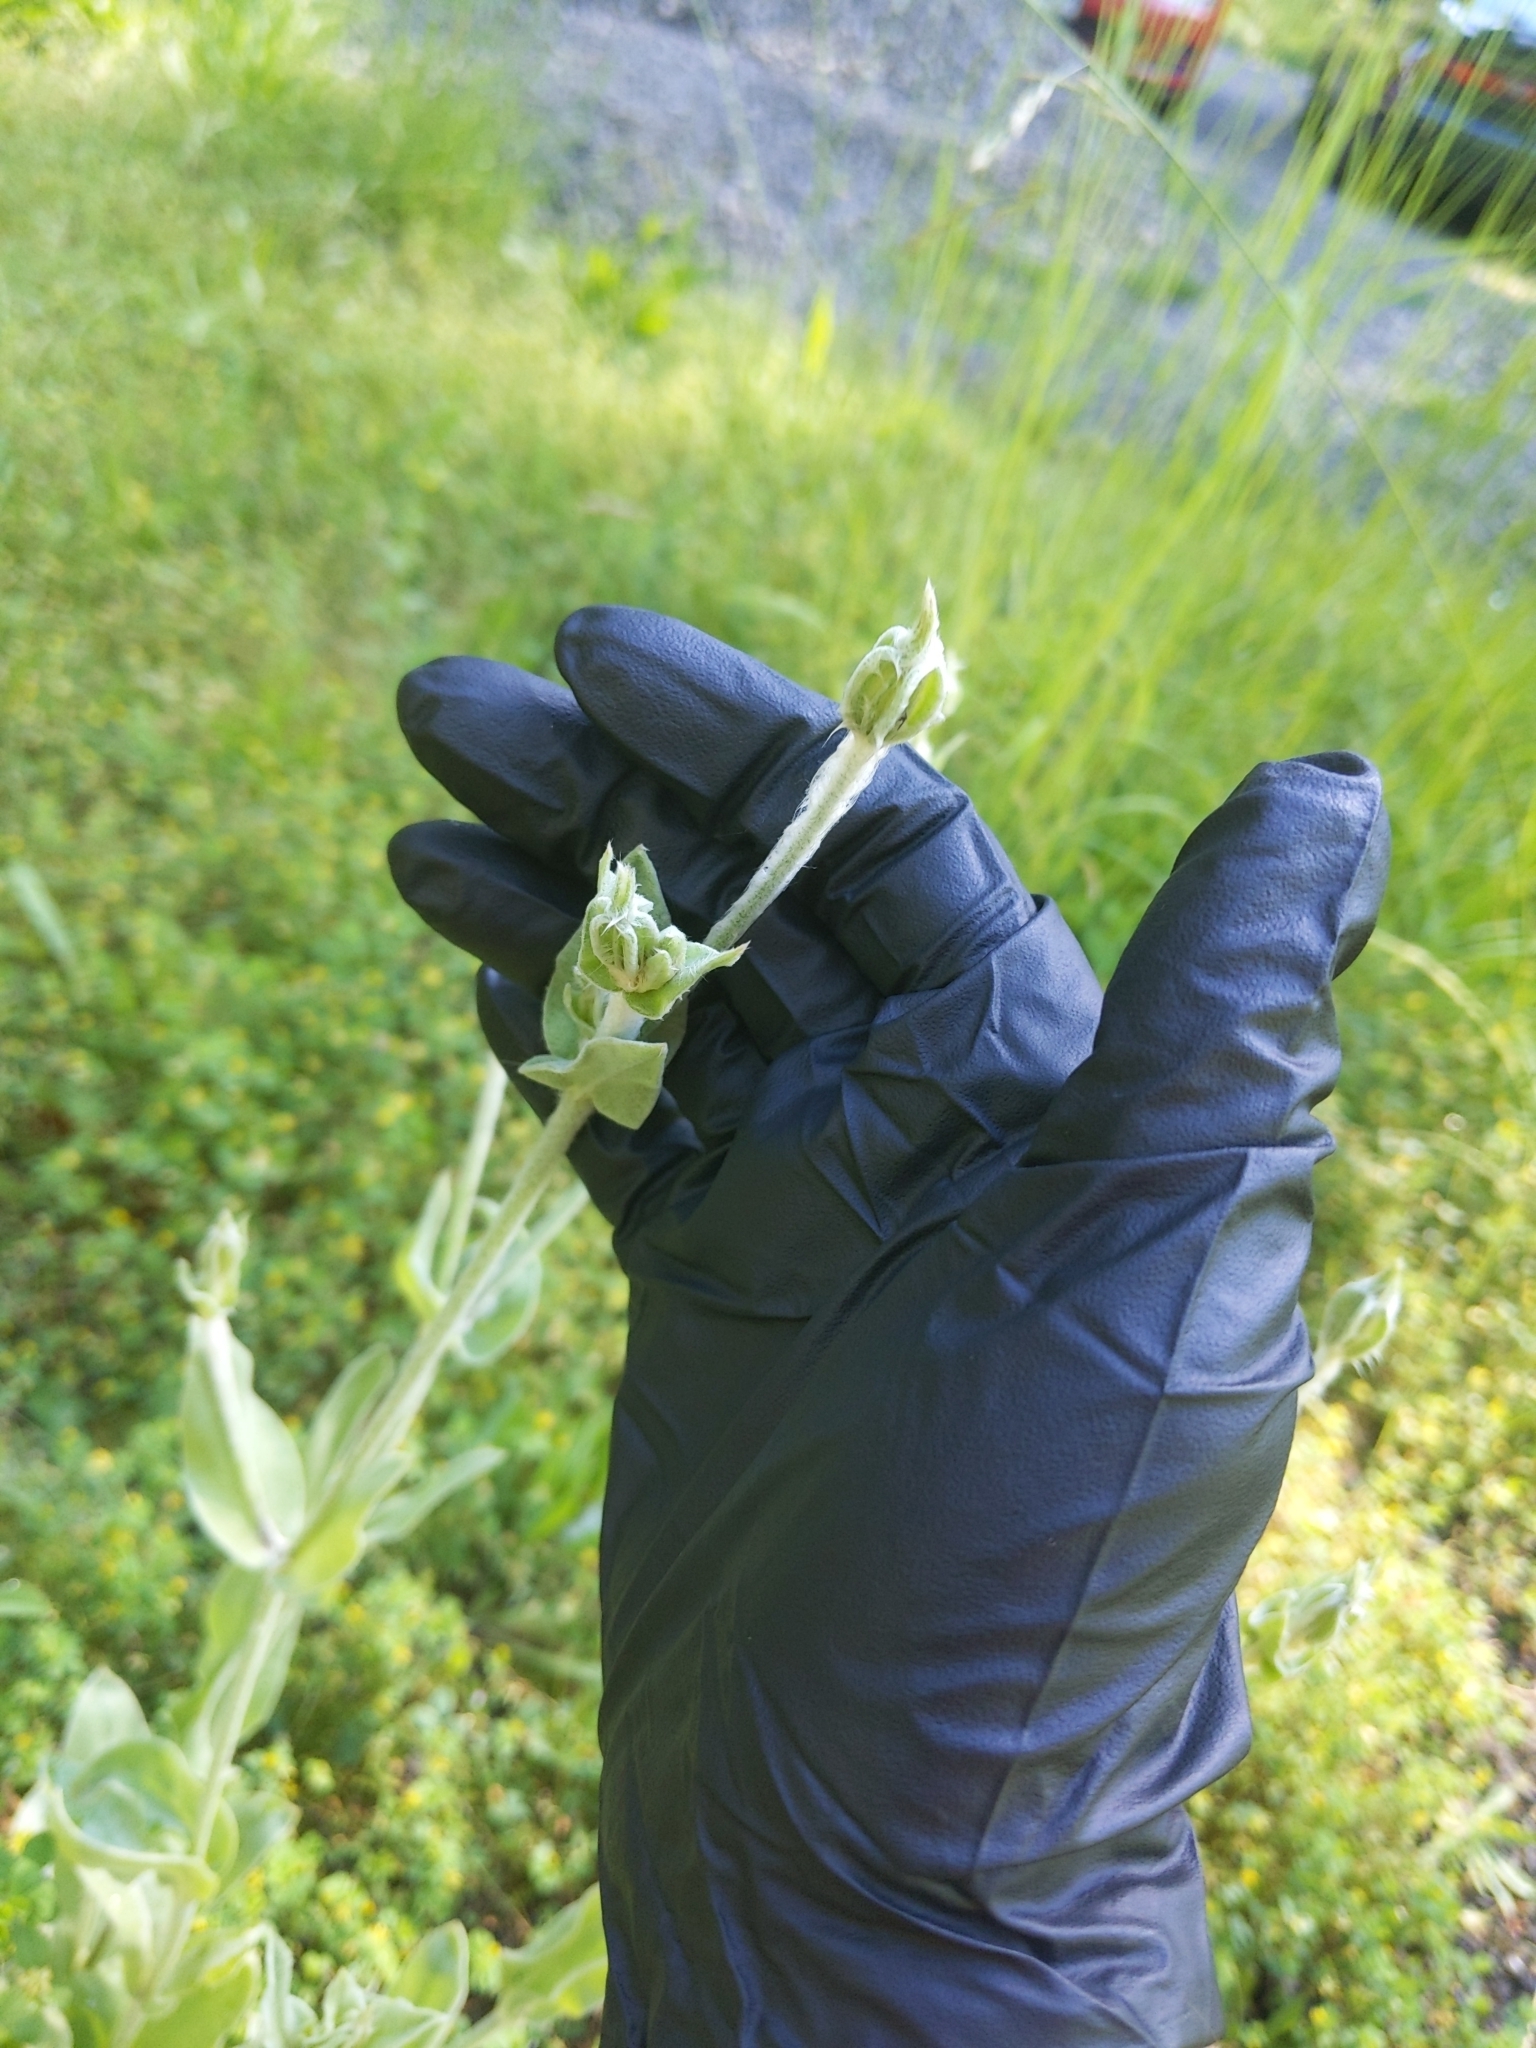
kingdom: Plantae
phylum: Tracheophyta
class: Magnoliopsida
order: Caryophyllales
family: Caryophyllaceae
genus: Silene
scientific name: Silene coronaria
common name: Rose campion
